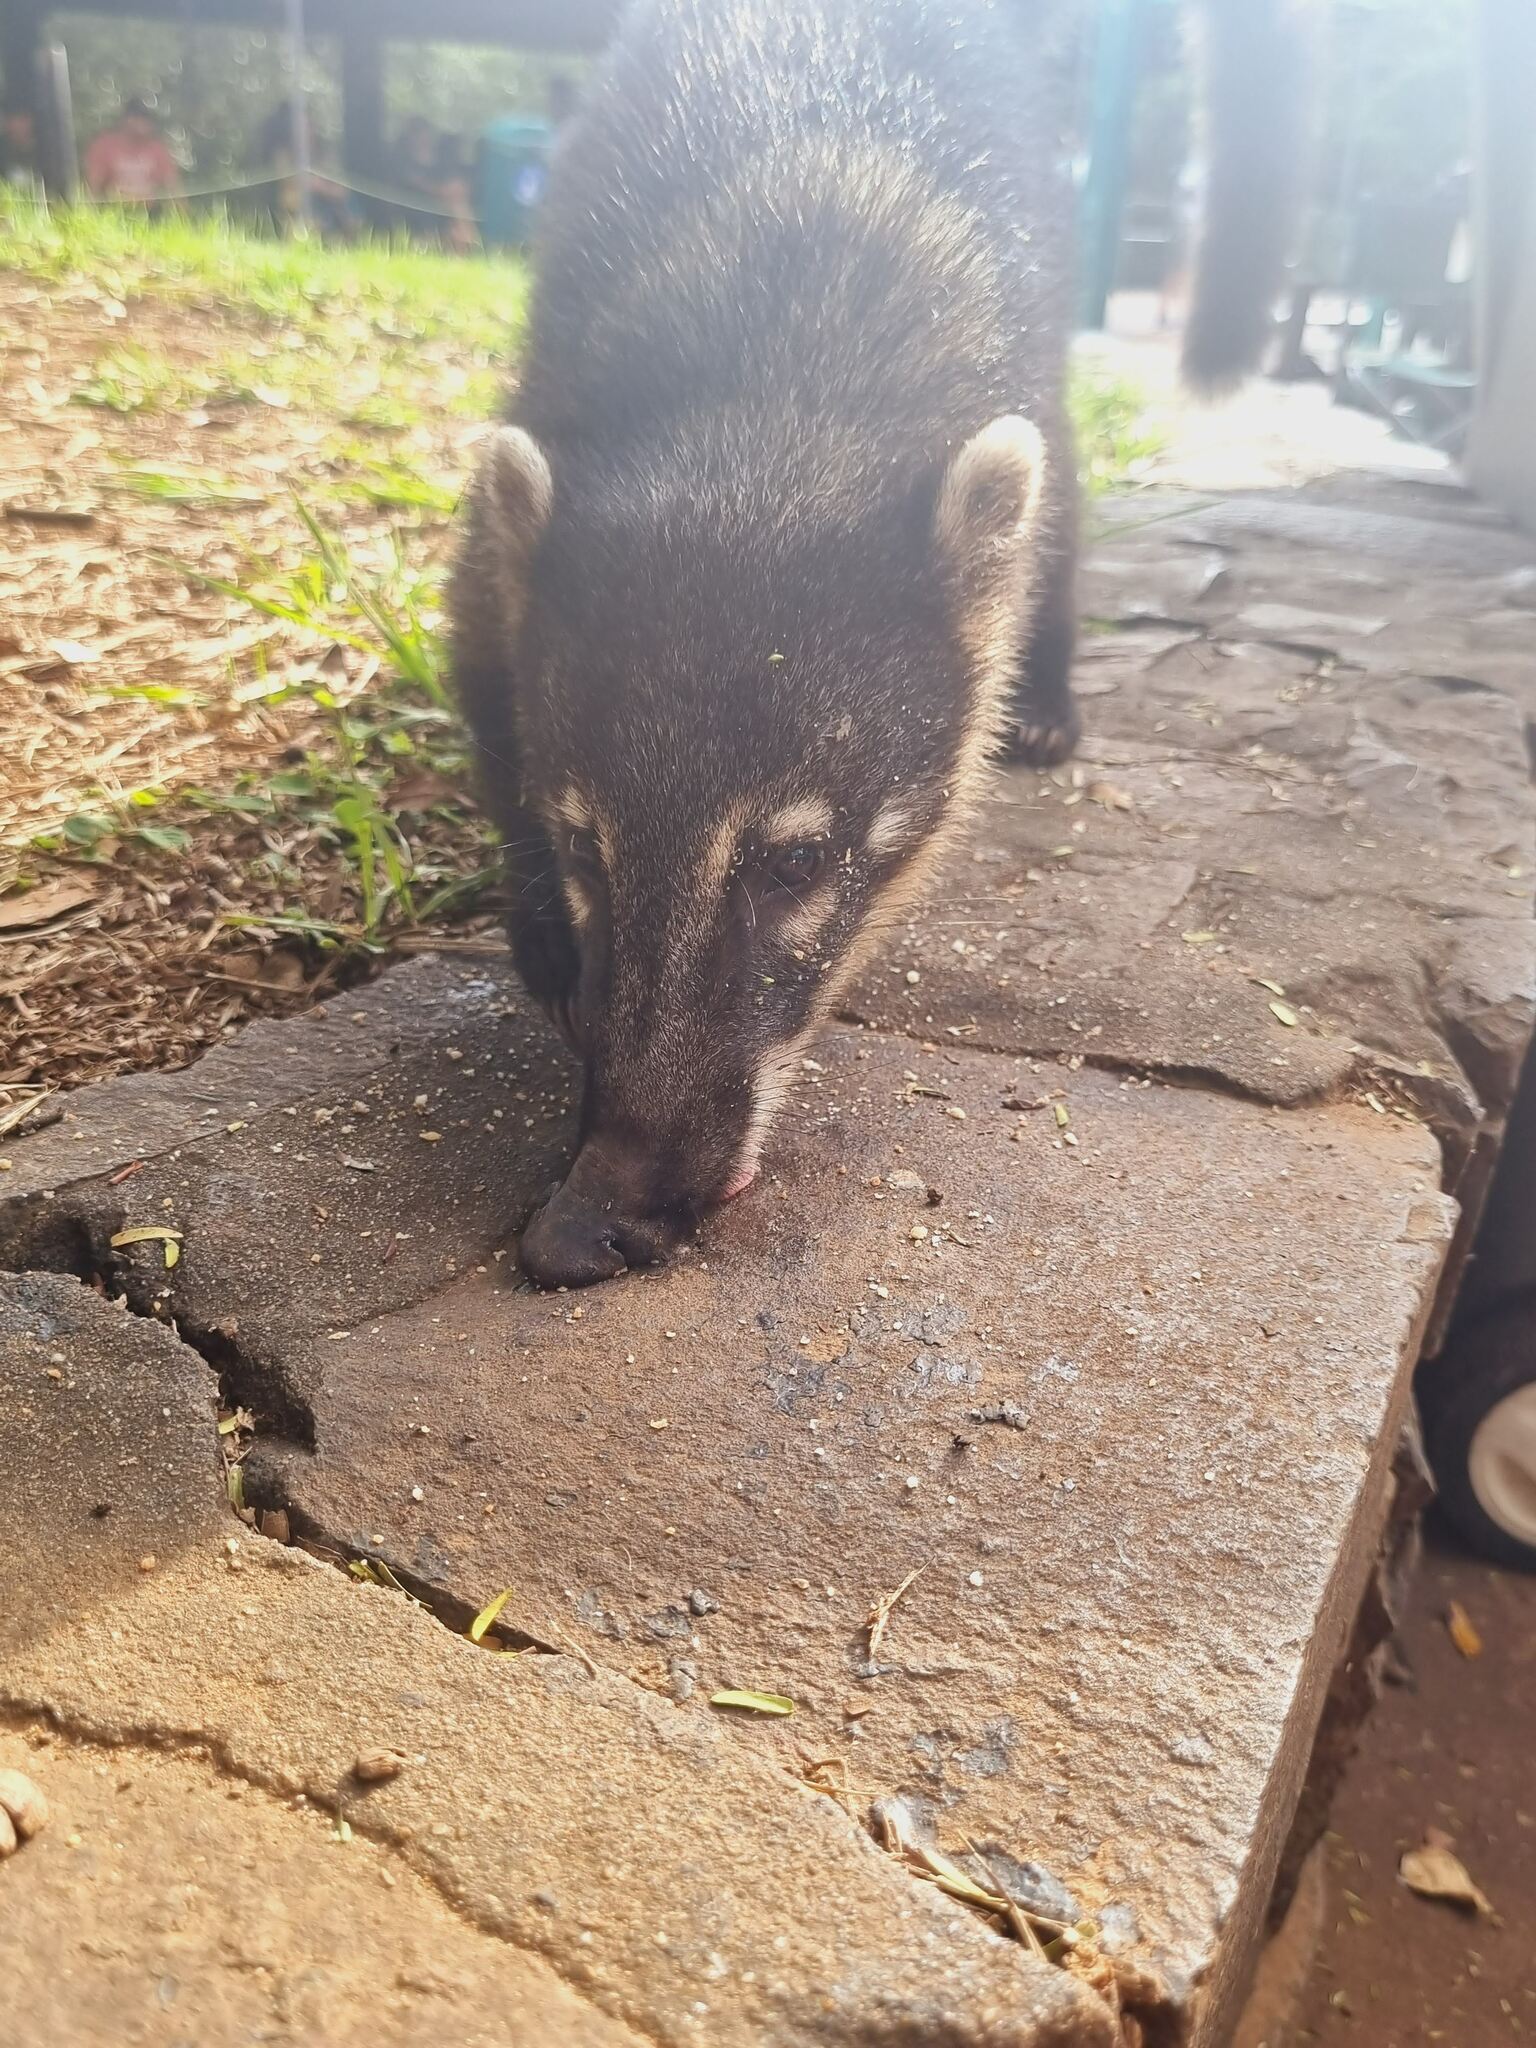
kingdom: Animalia
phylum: Chordata
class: Mammalia
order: Carnivora
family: Procyonidae
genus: Nasua
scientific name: Nasua nasua
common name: South american coati
